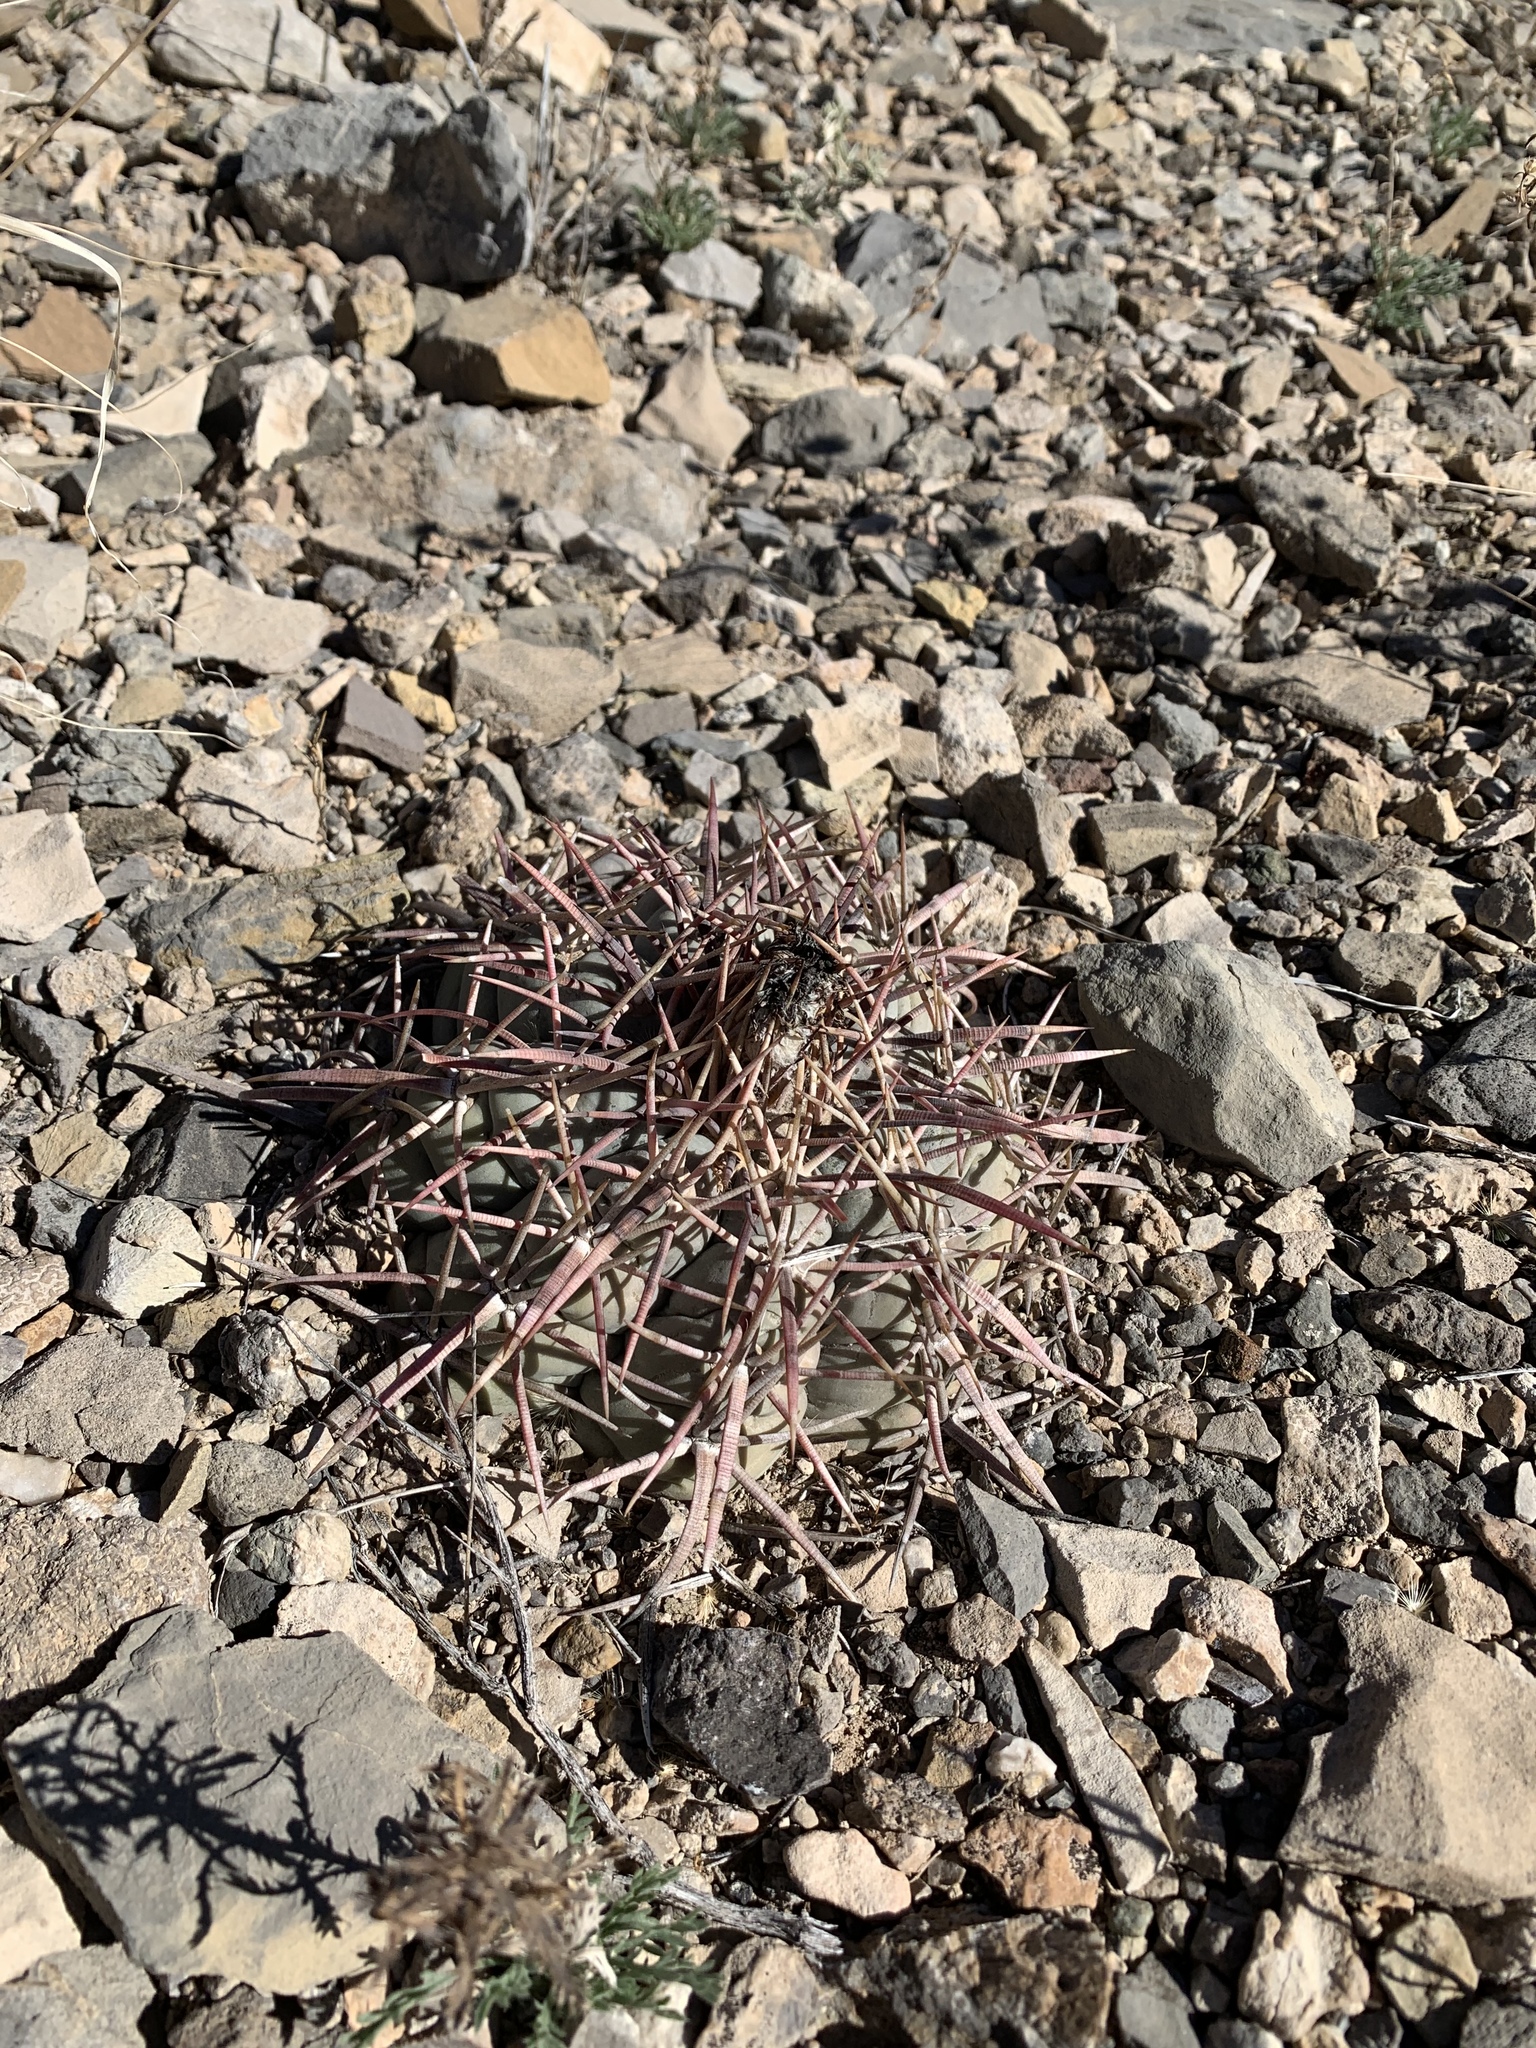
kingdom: Plantae
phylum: Tracheophyta
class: Magnoliopsida
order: Caryophyllales
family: Cactaceae
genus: Echinocactus
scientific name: Echinocactus horizonthalonius
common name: Devilshead
